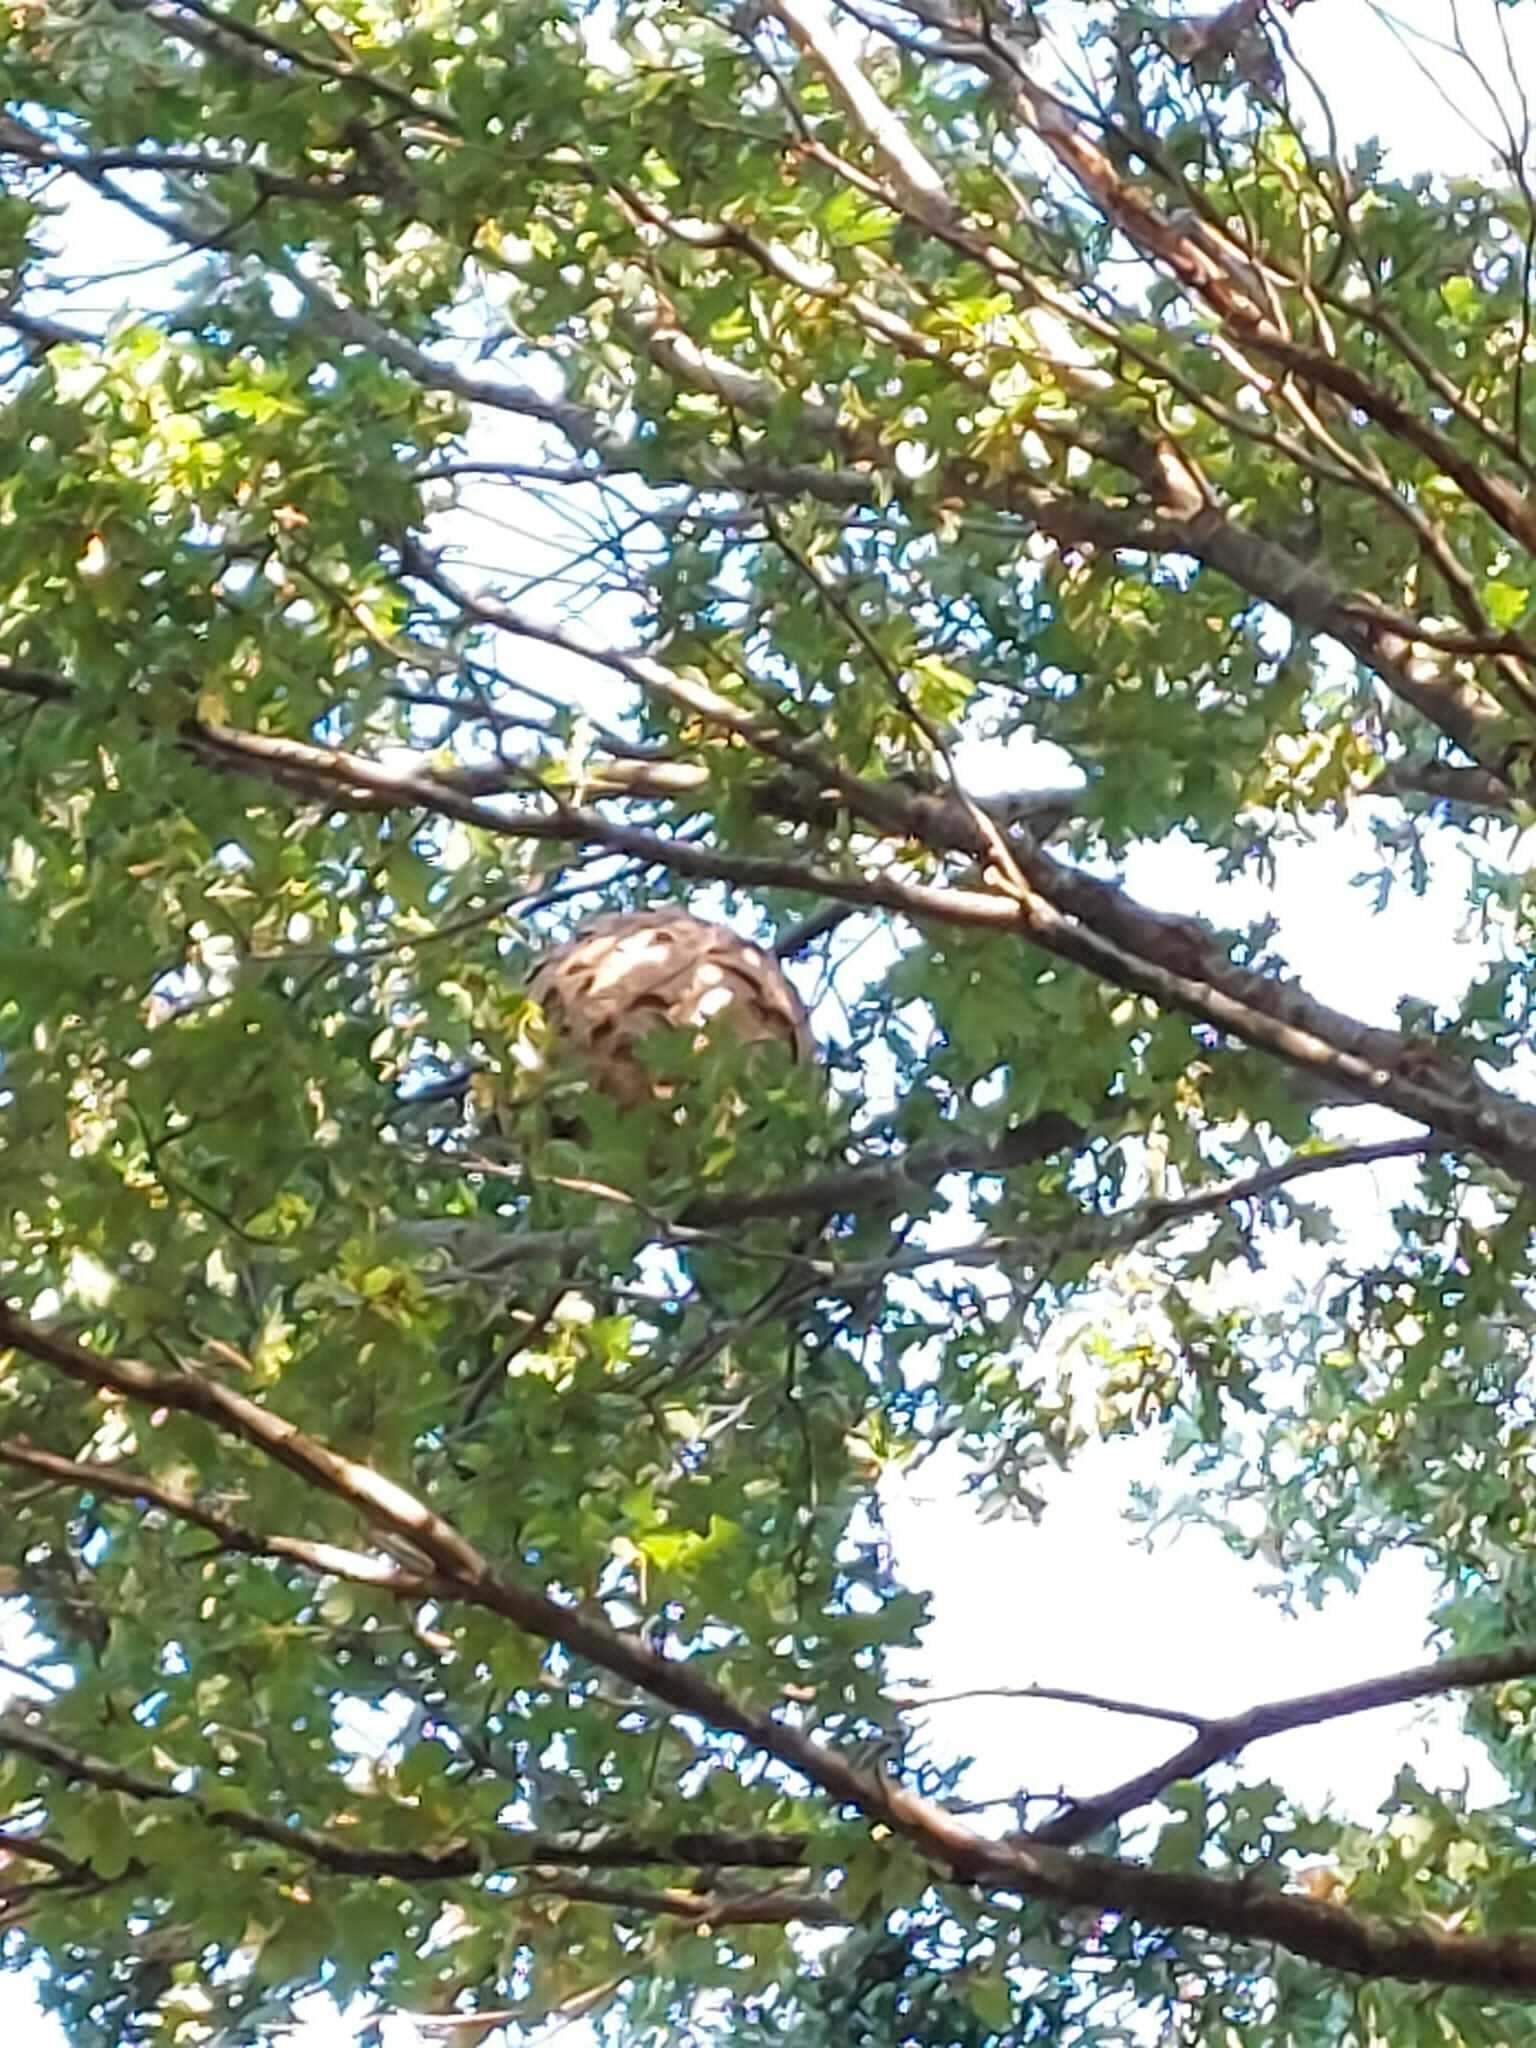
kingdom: Animalia
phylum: Arthropoda
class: Insecta
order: Hymenoptera
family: Vespidae
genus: Vespa
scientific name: Vespa velutina
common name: Asian hornet
